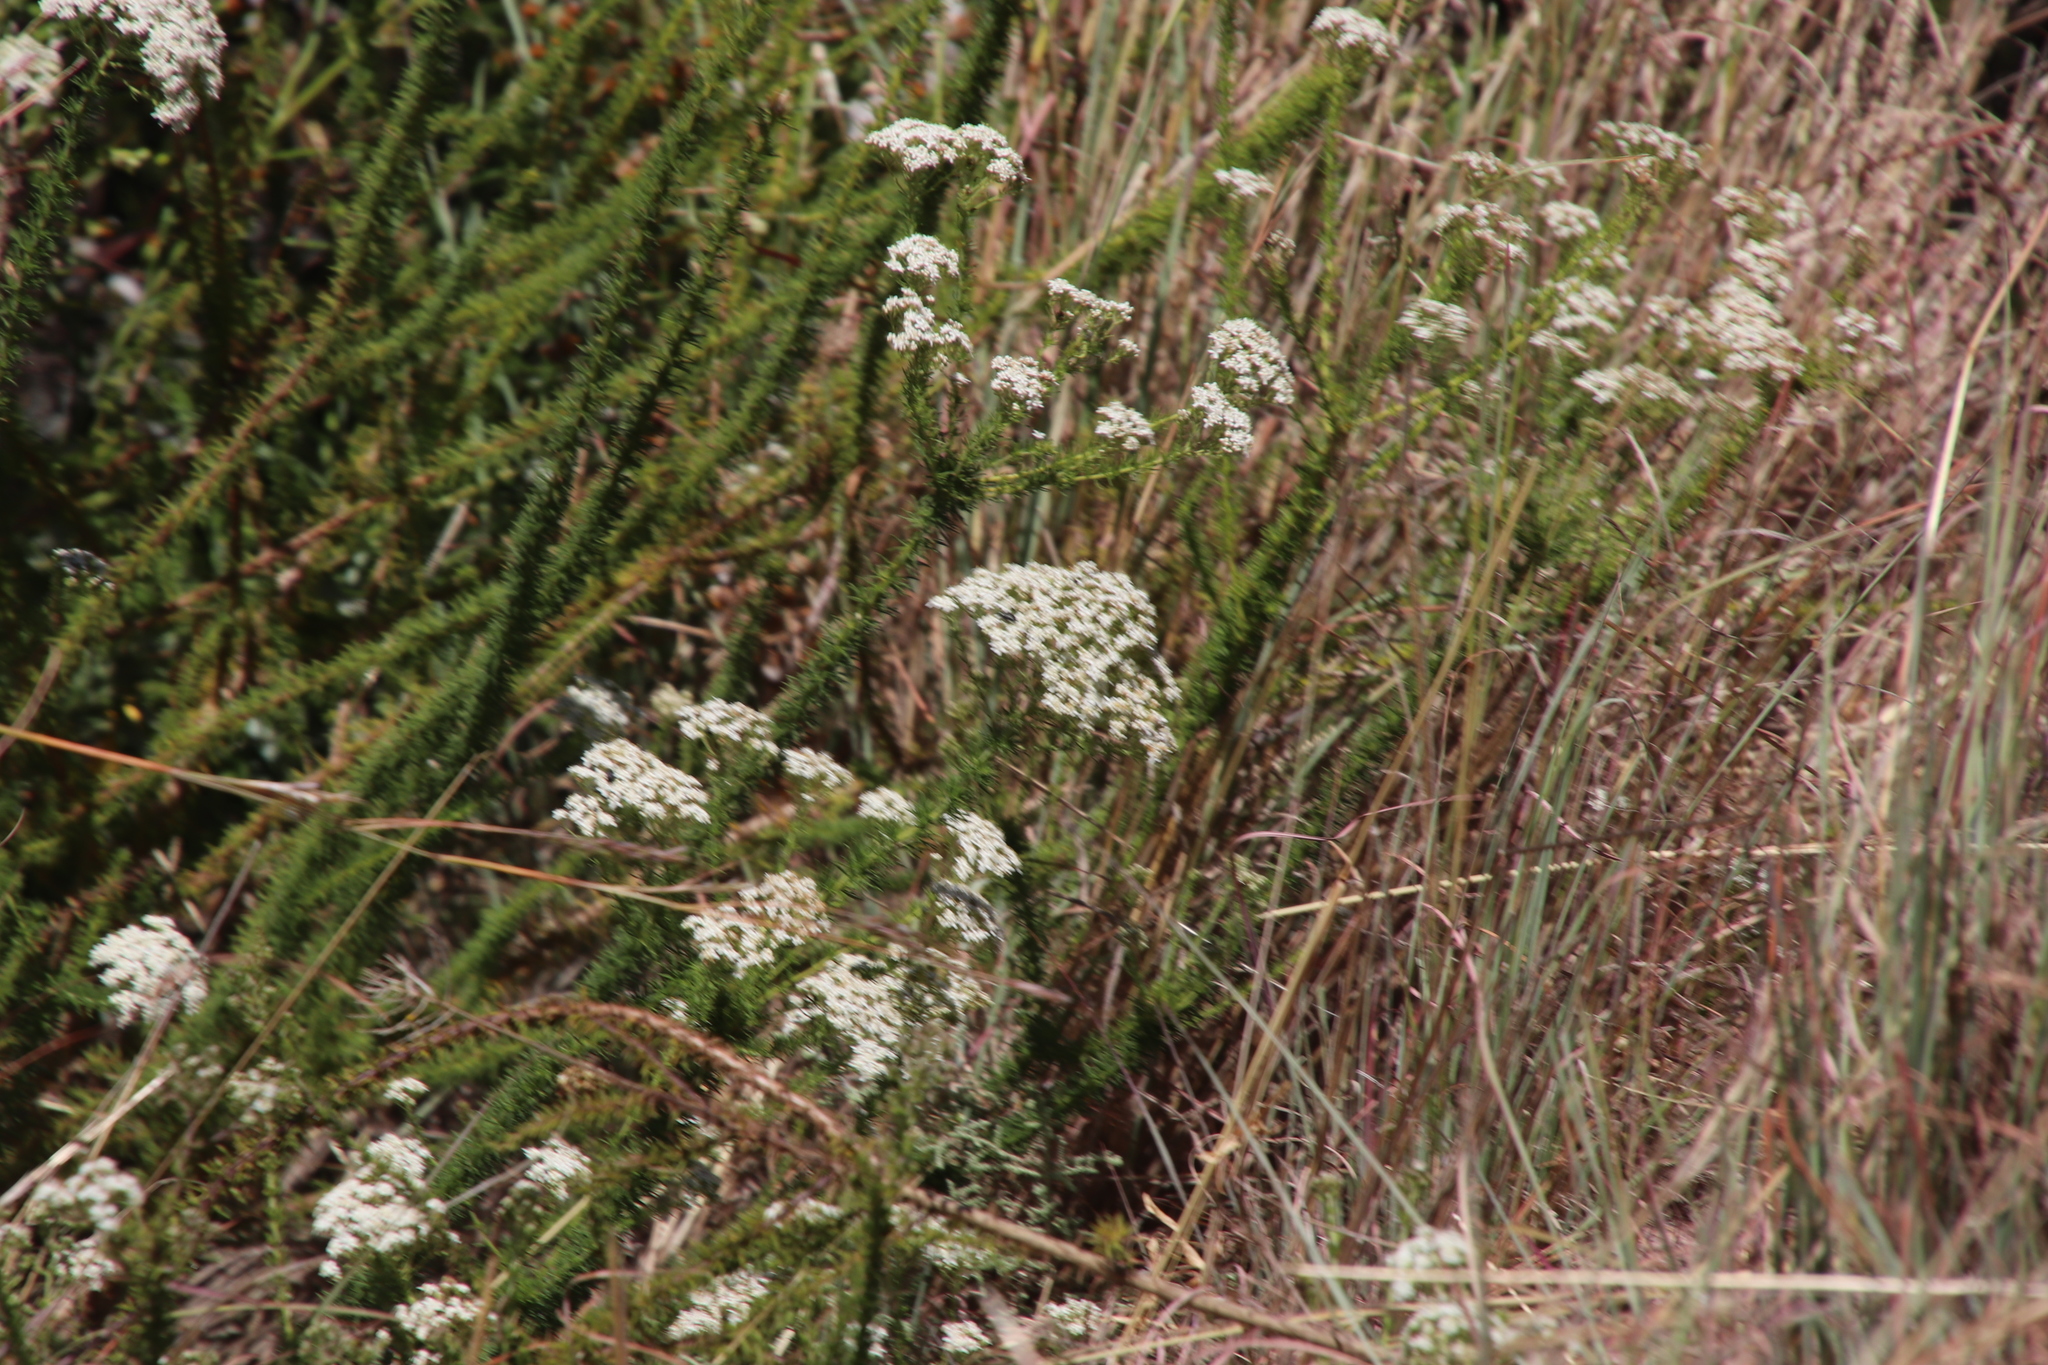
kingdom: Plantae
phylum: Tracheophyta
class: Magnoliopsida
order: Lamiales
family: Scrophulariaceae
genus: Selago
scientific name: Selago corymbosa
